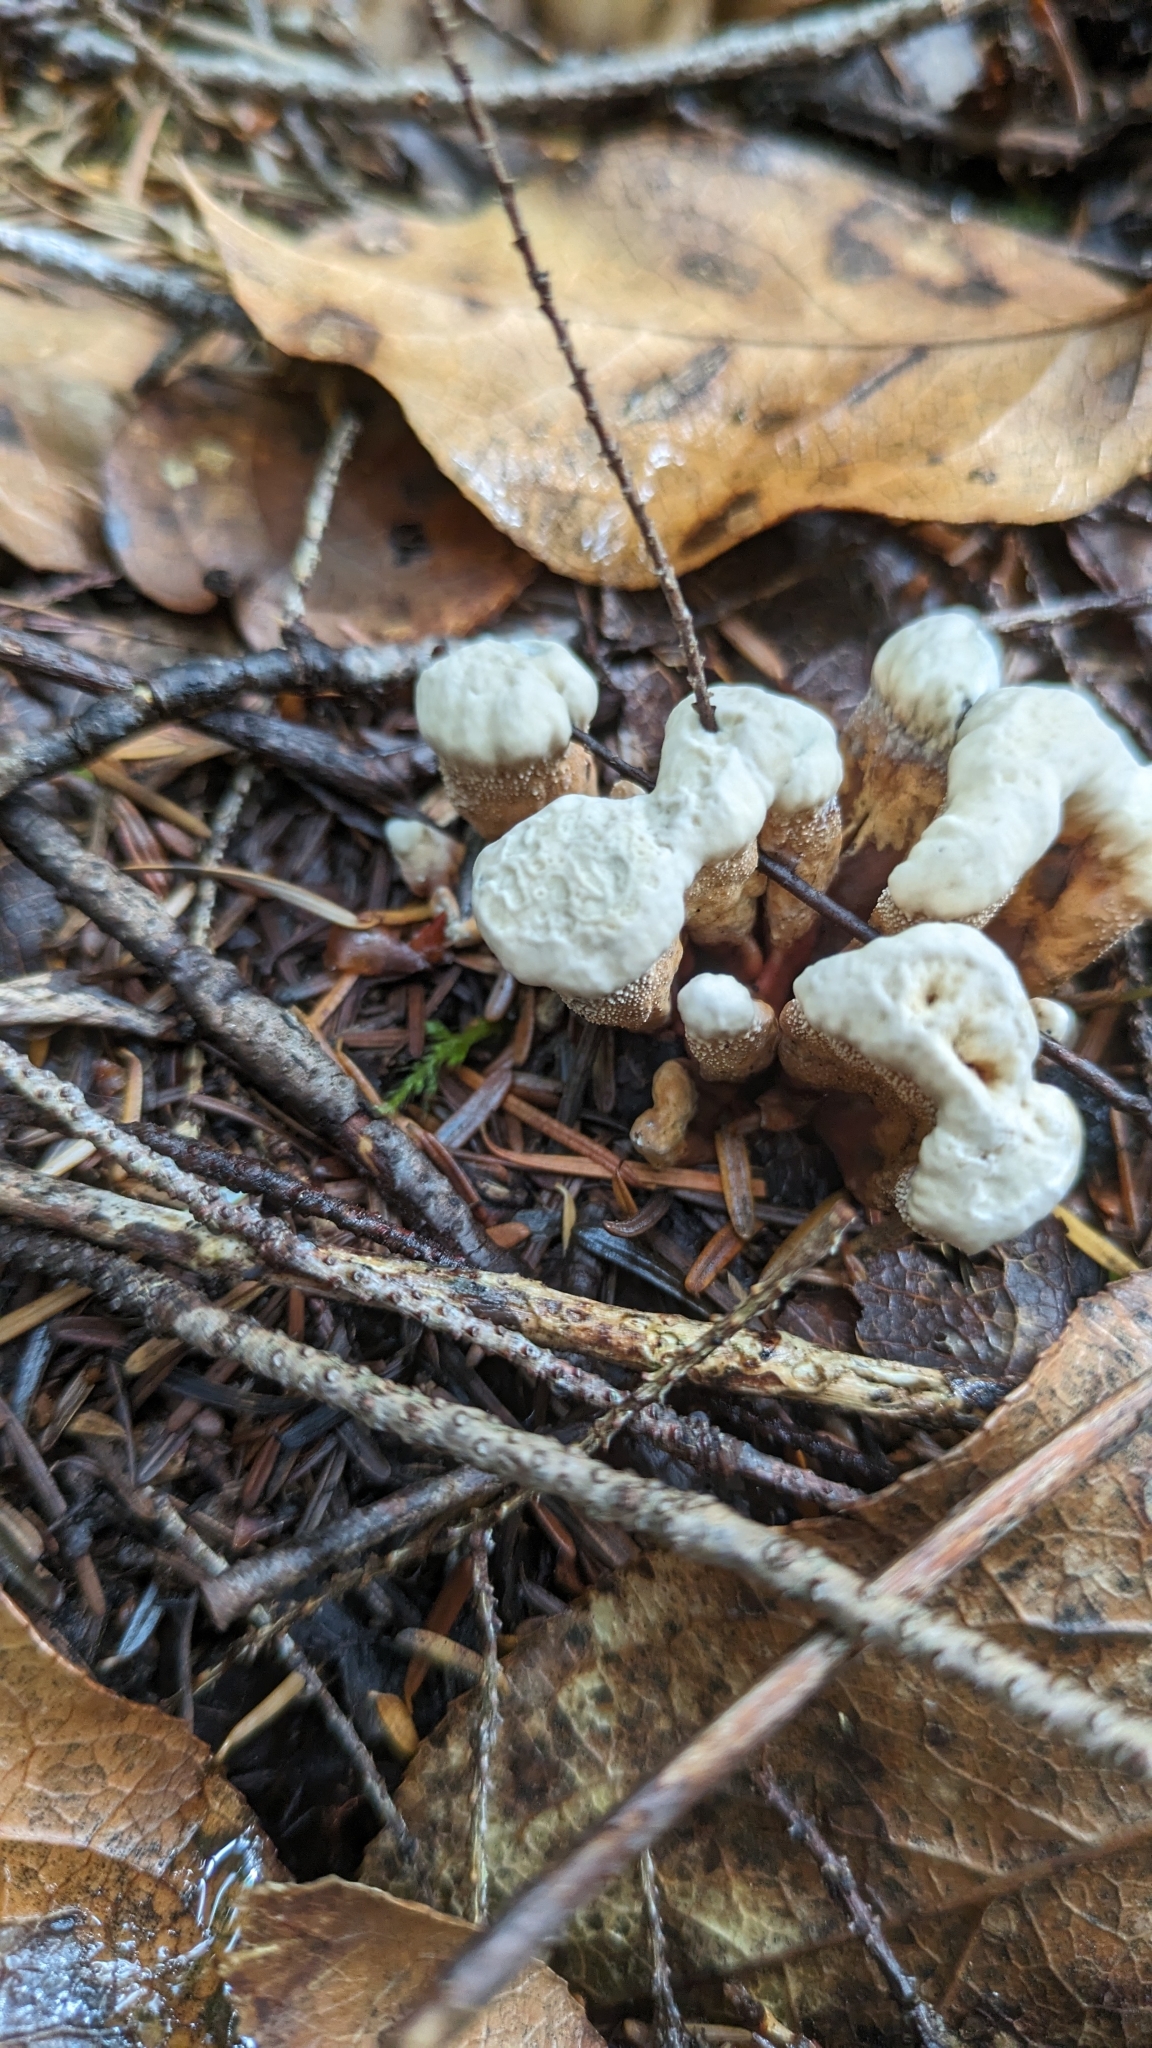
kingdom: Fungi
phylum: Basidiomycota
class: Agaricomycetes
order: Polyporales
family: Laetiporaceae
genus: Phaeolus
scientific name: Phaeolus schweinitzii
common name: Dyer's mazegill
